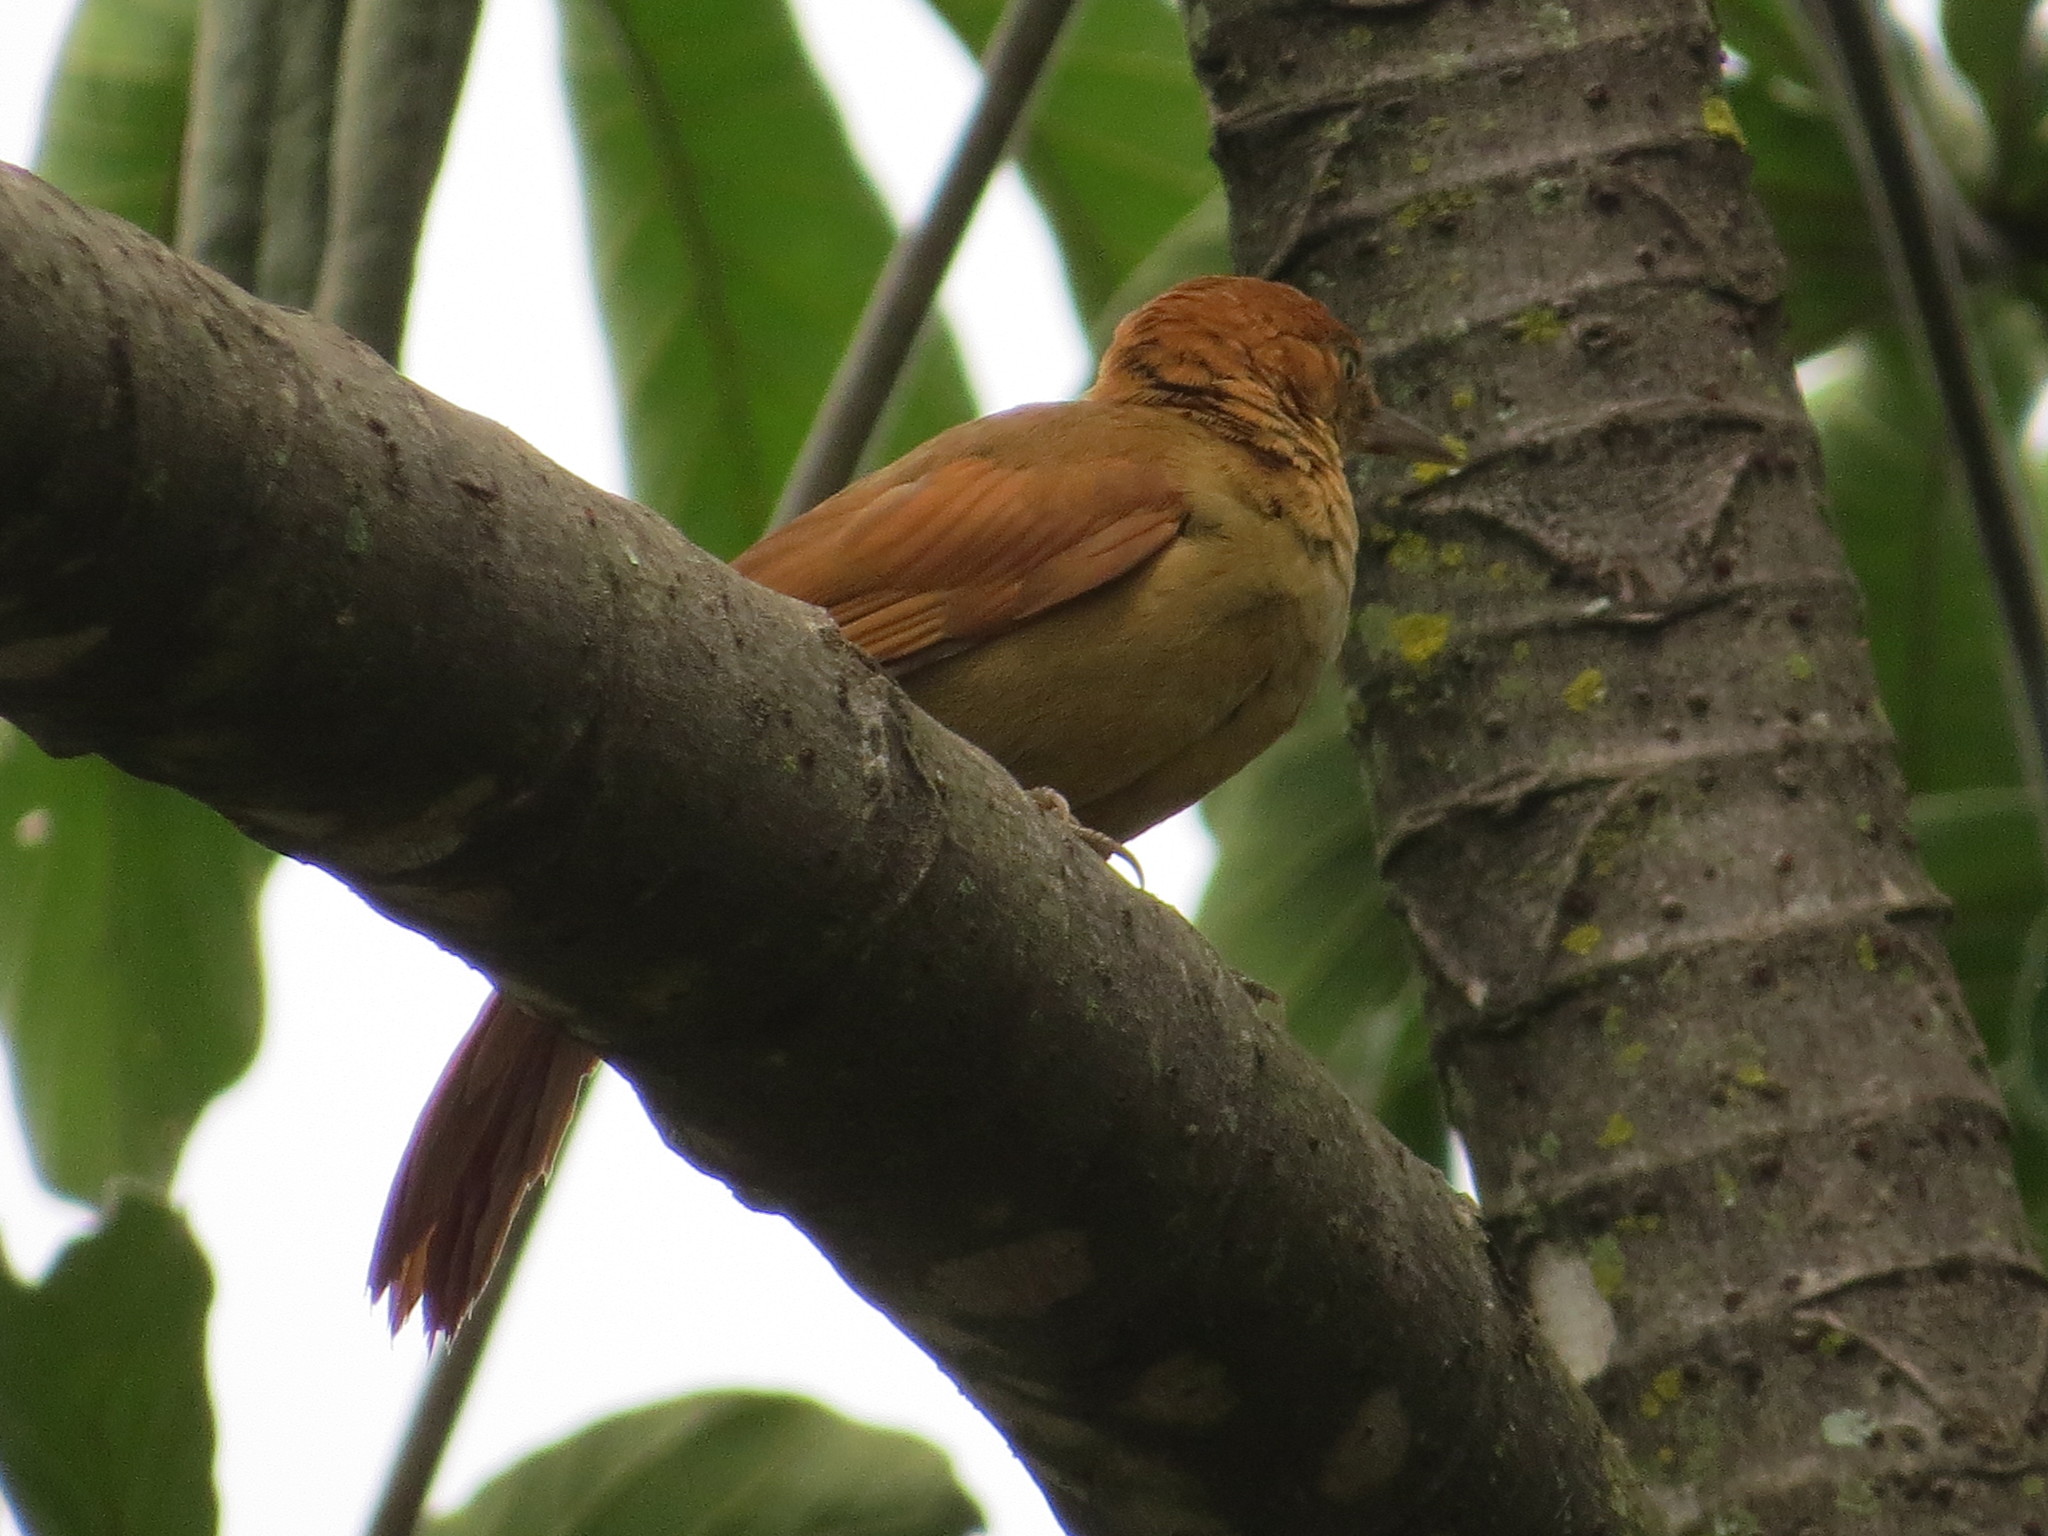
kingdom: Animalia
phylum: Chordata
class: Aves
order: Passeriformes
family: Furnariidae
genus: Hylocryptus
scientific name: Hylocryptus rectirostris
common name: Henna-capped foliage-gleaner
